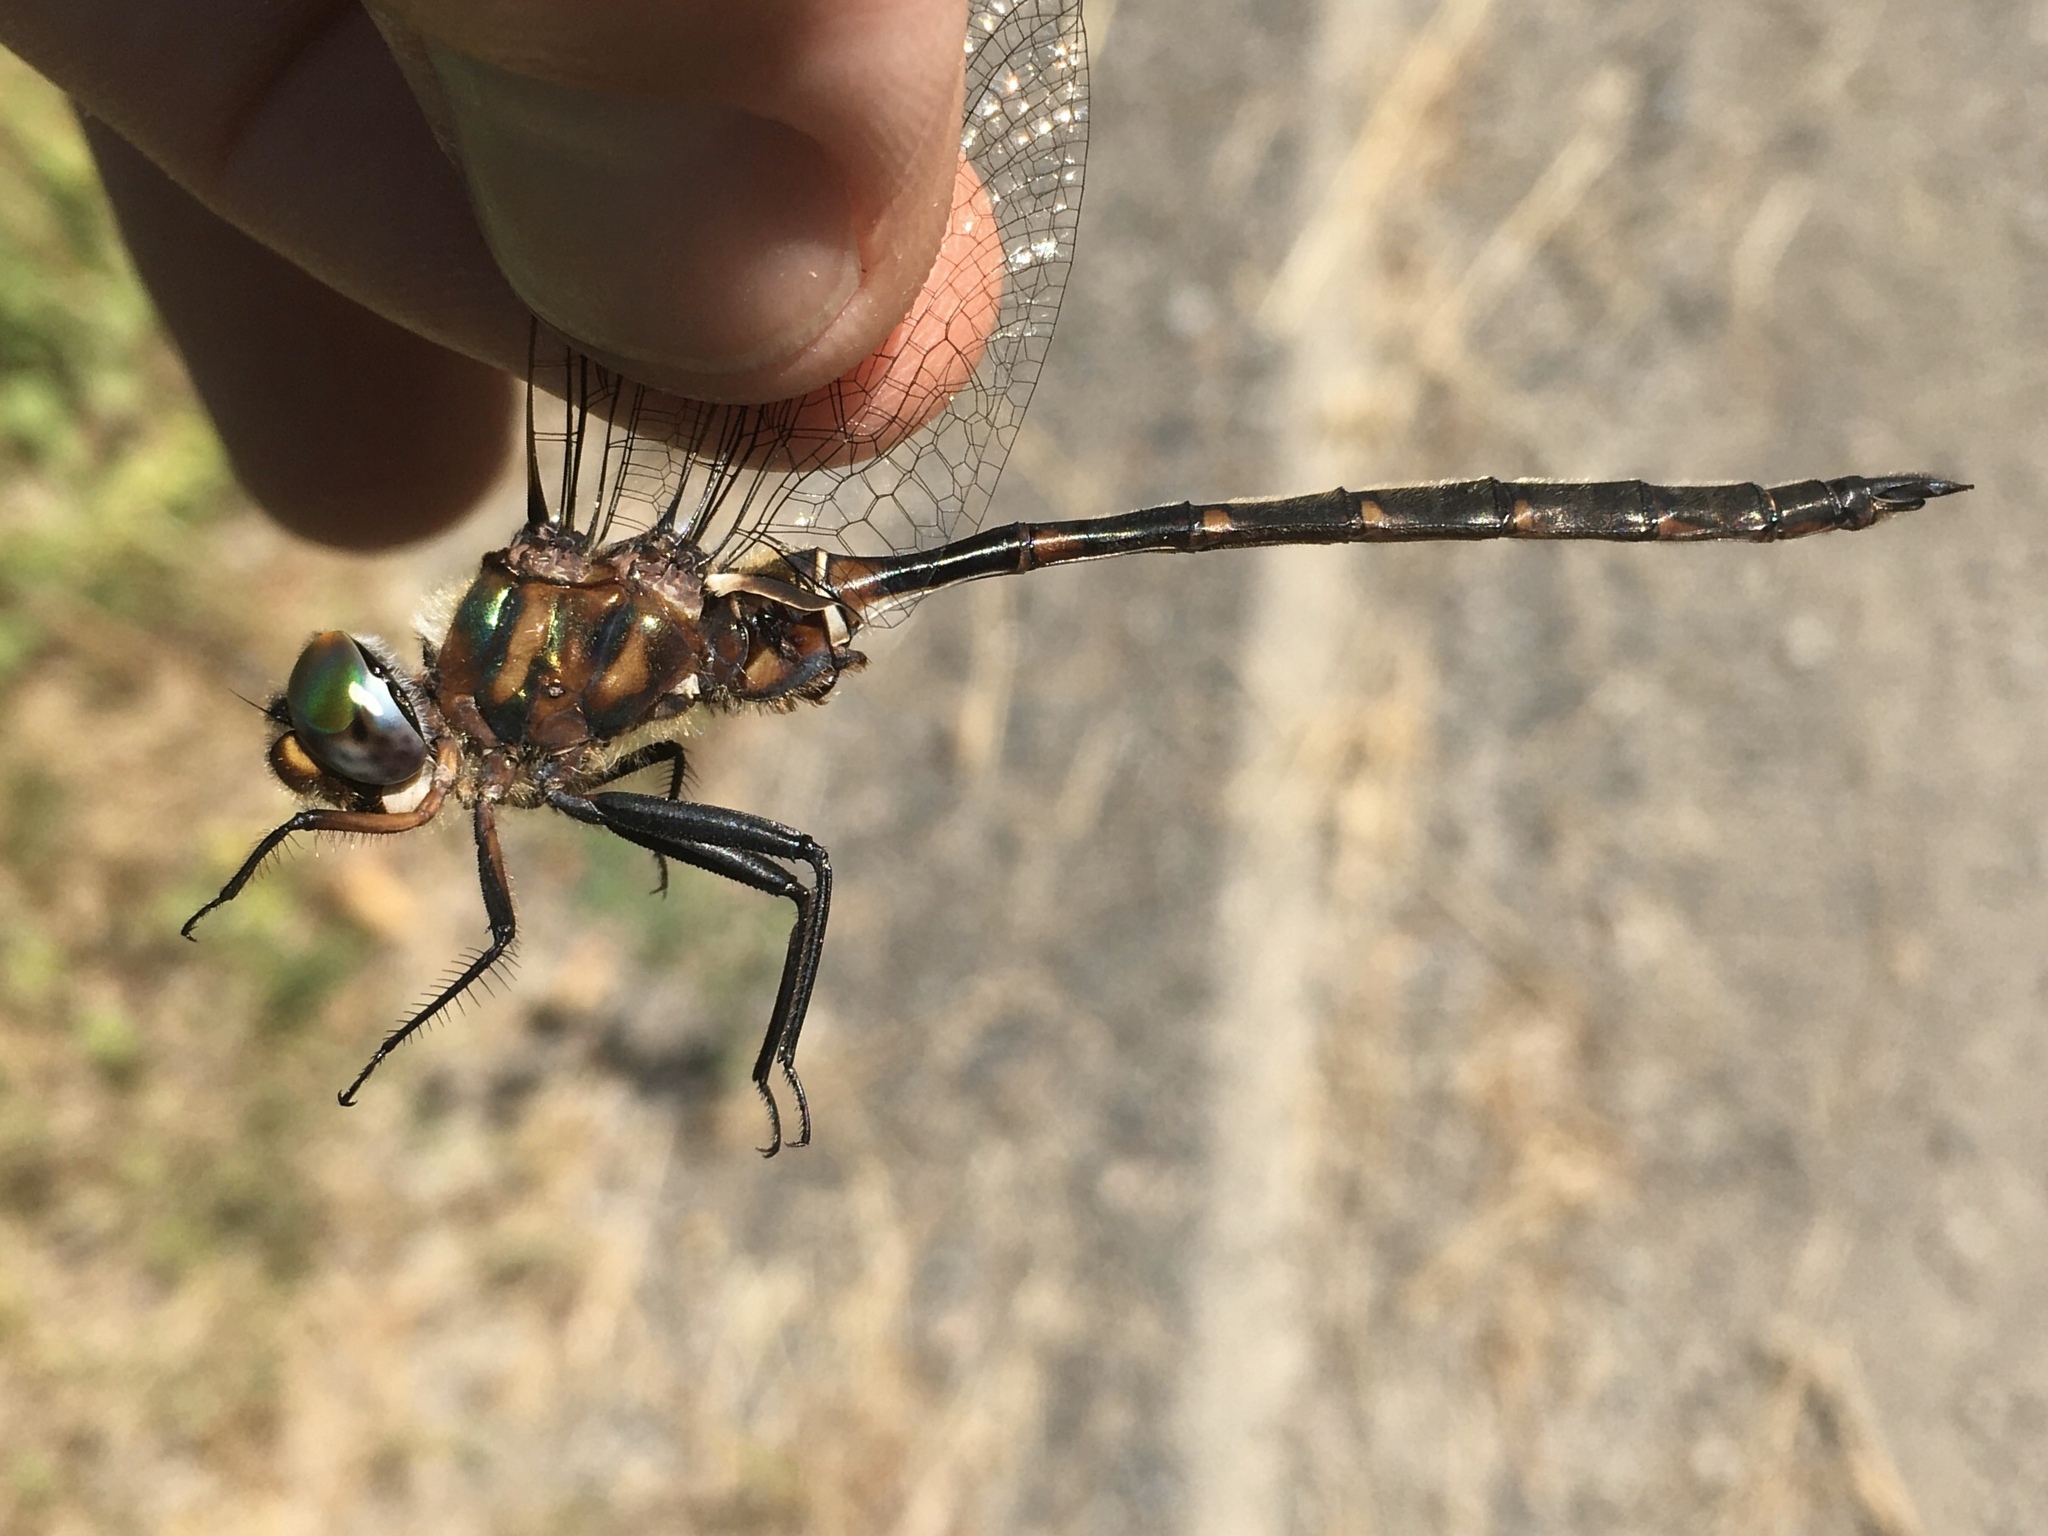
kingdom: Animalia
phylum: Arthropoda
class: Insecta
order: Odonata
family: Corduliidae
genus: Somatochlora
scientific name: Somatochlora incurvata
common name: Incurvate emerald
